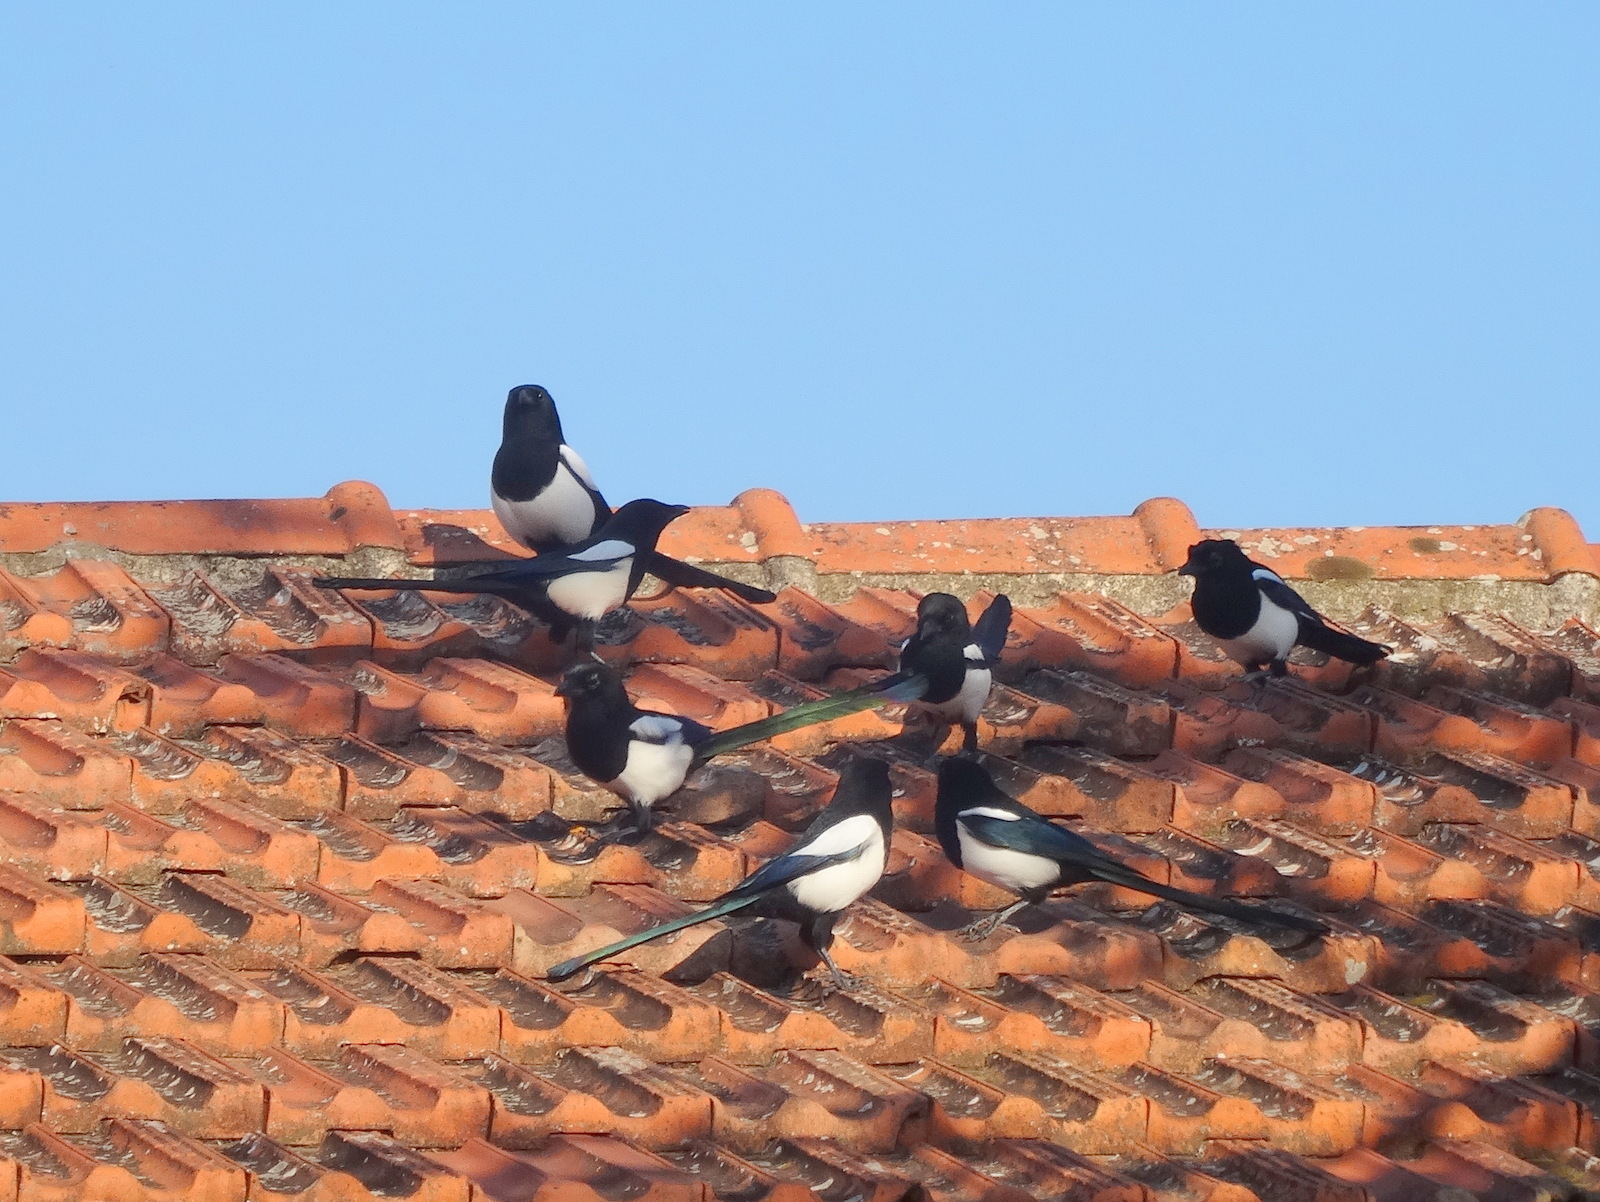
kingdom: Animalia
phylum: Chordata
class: Aves
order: Passeriformes
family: Corvidae
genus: Pica
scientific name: Pica pica
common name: Eurasian magpie
